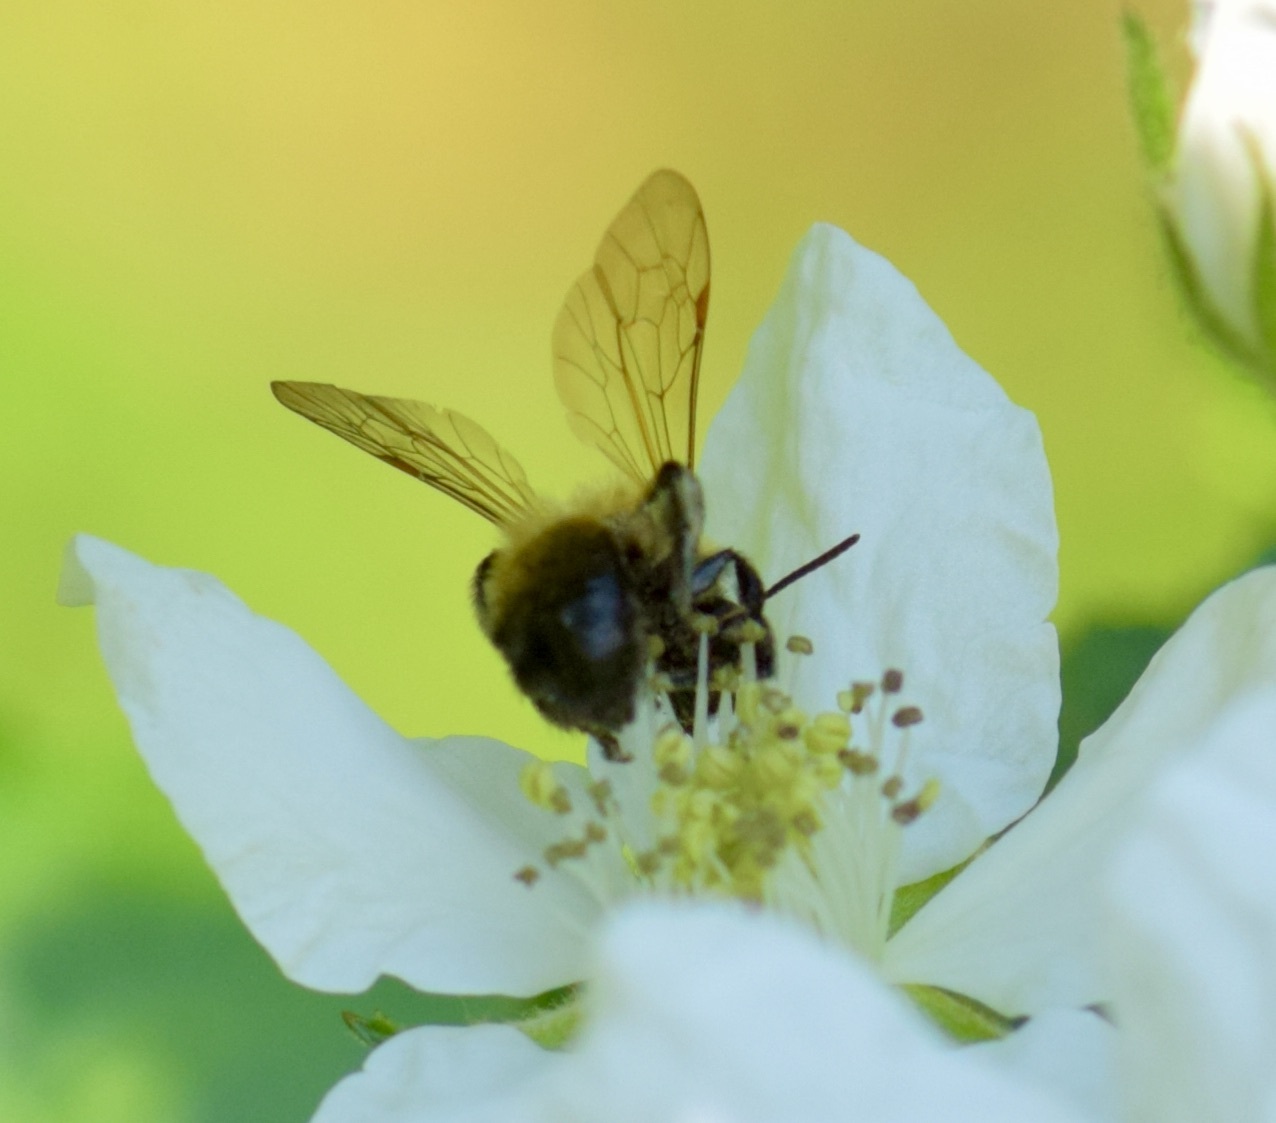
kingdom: Animalia
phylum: Arthropoda
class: Insecta
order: Hymenoptera
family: Andrenidae
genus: Andrena
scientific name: Andrena milwaukeensis
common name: Milwaukee mining bee
